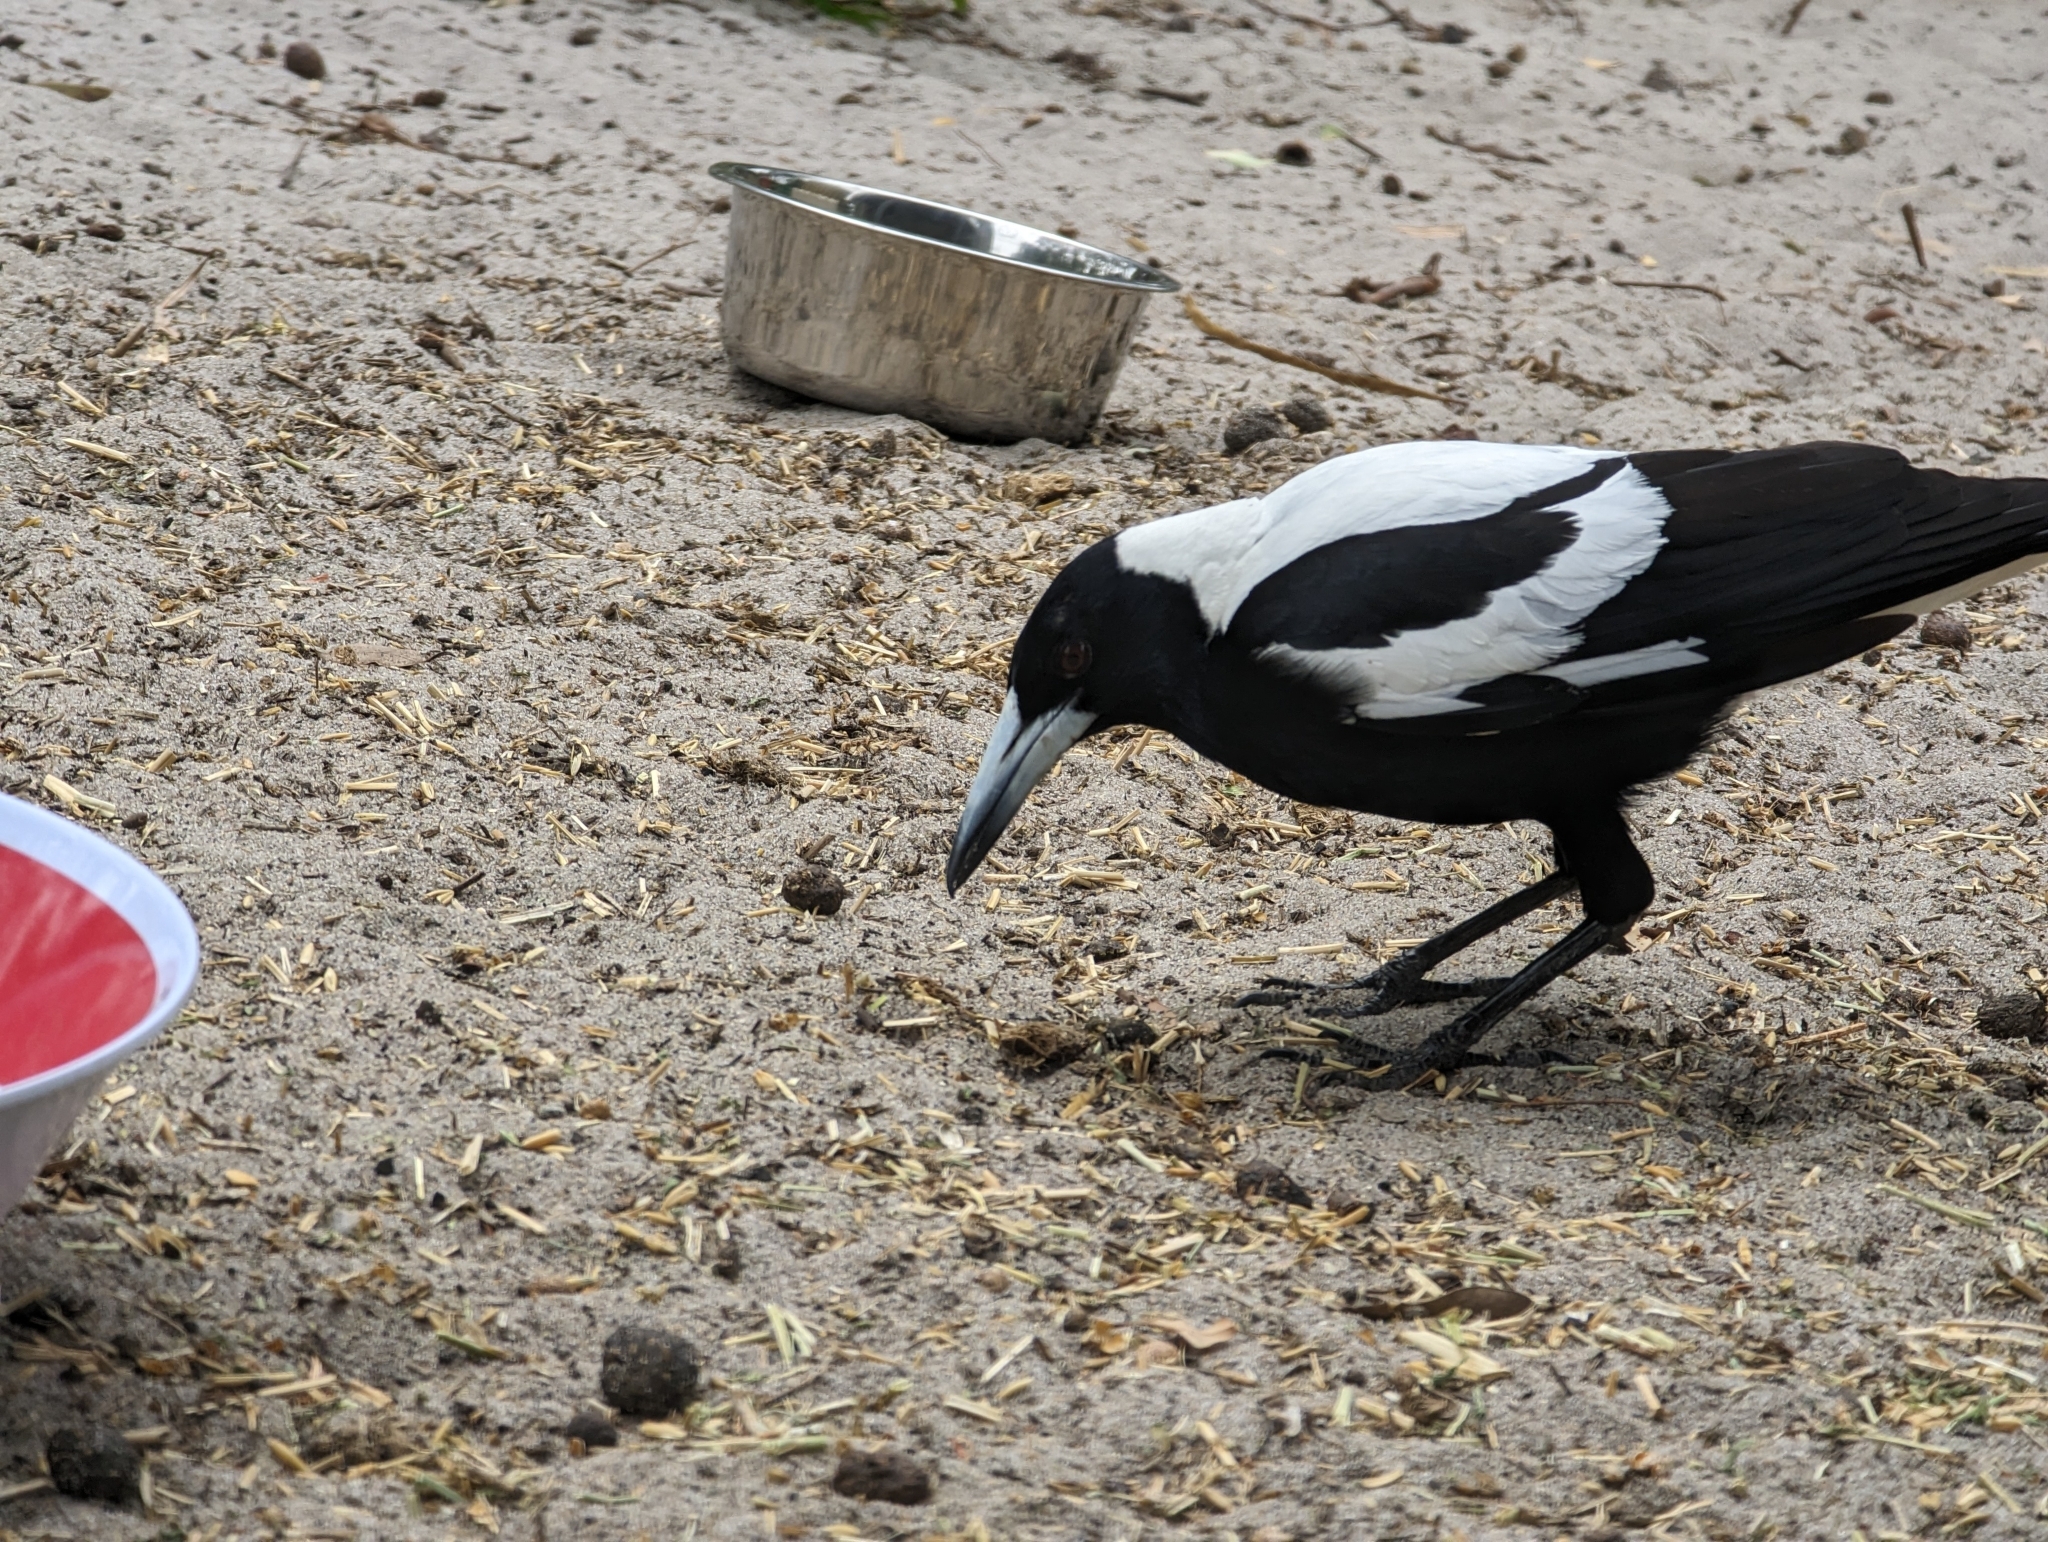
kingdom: Animalia
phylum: Chordata
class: Aves
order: Passeriformes
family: Cracticidae
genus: Gymnorhina
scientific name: Gymnorhina tibicen
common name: Australian magpie
